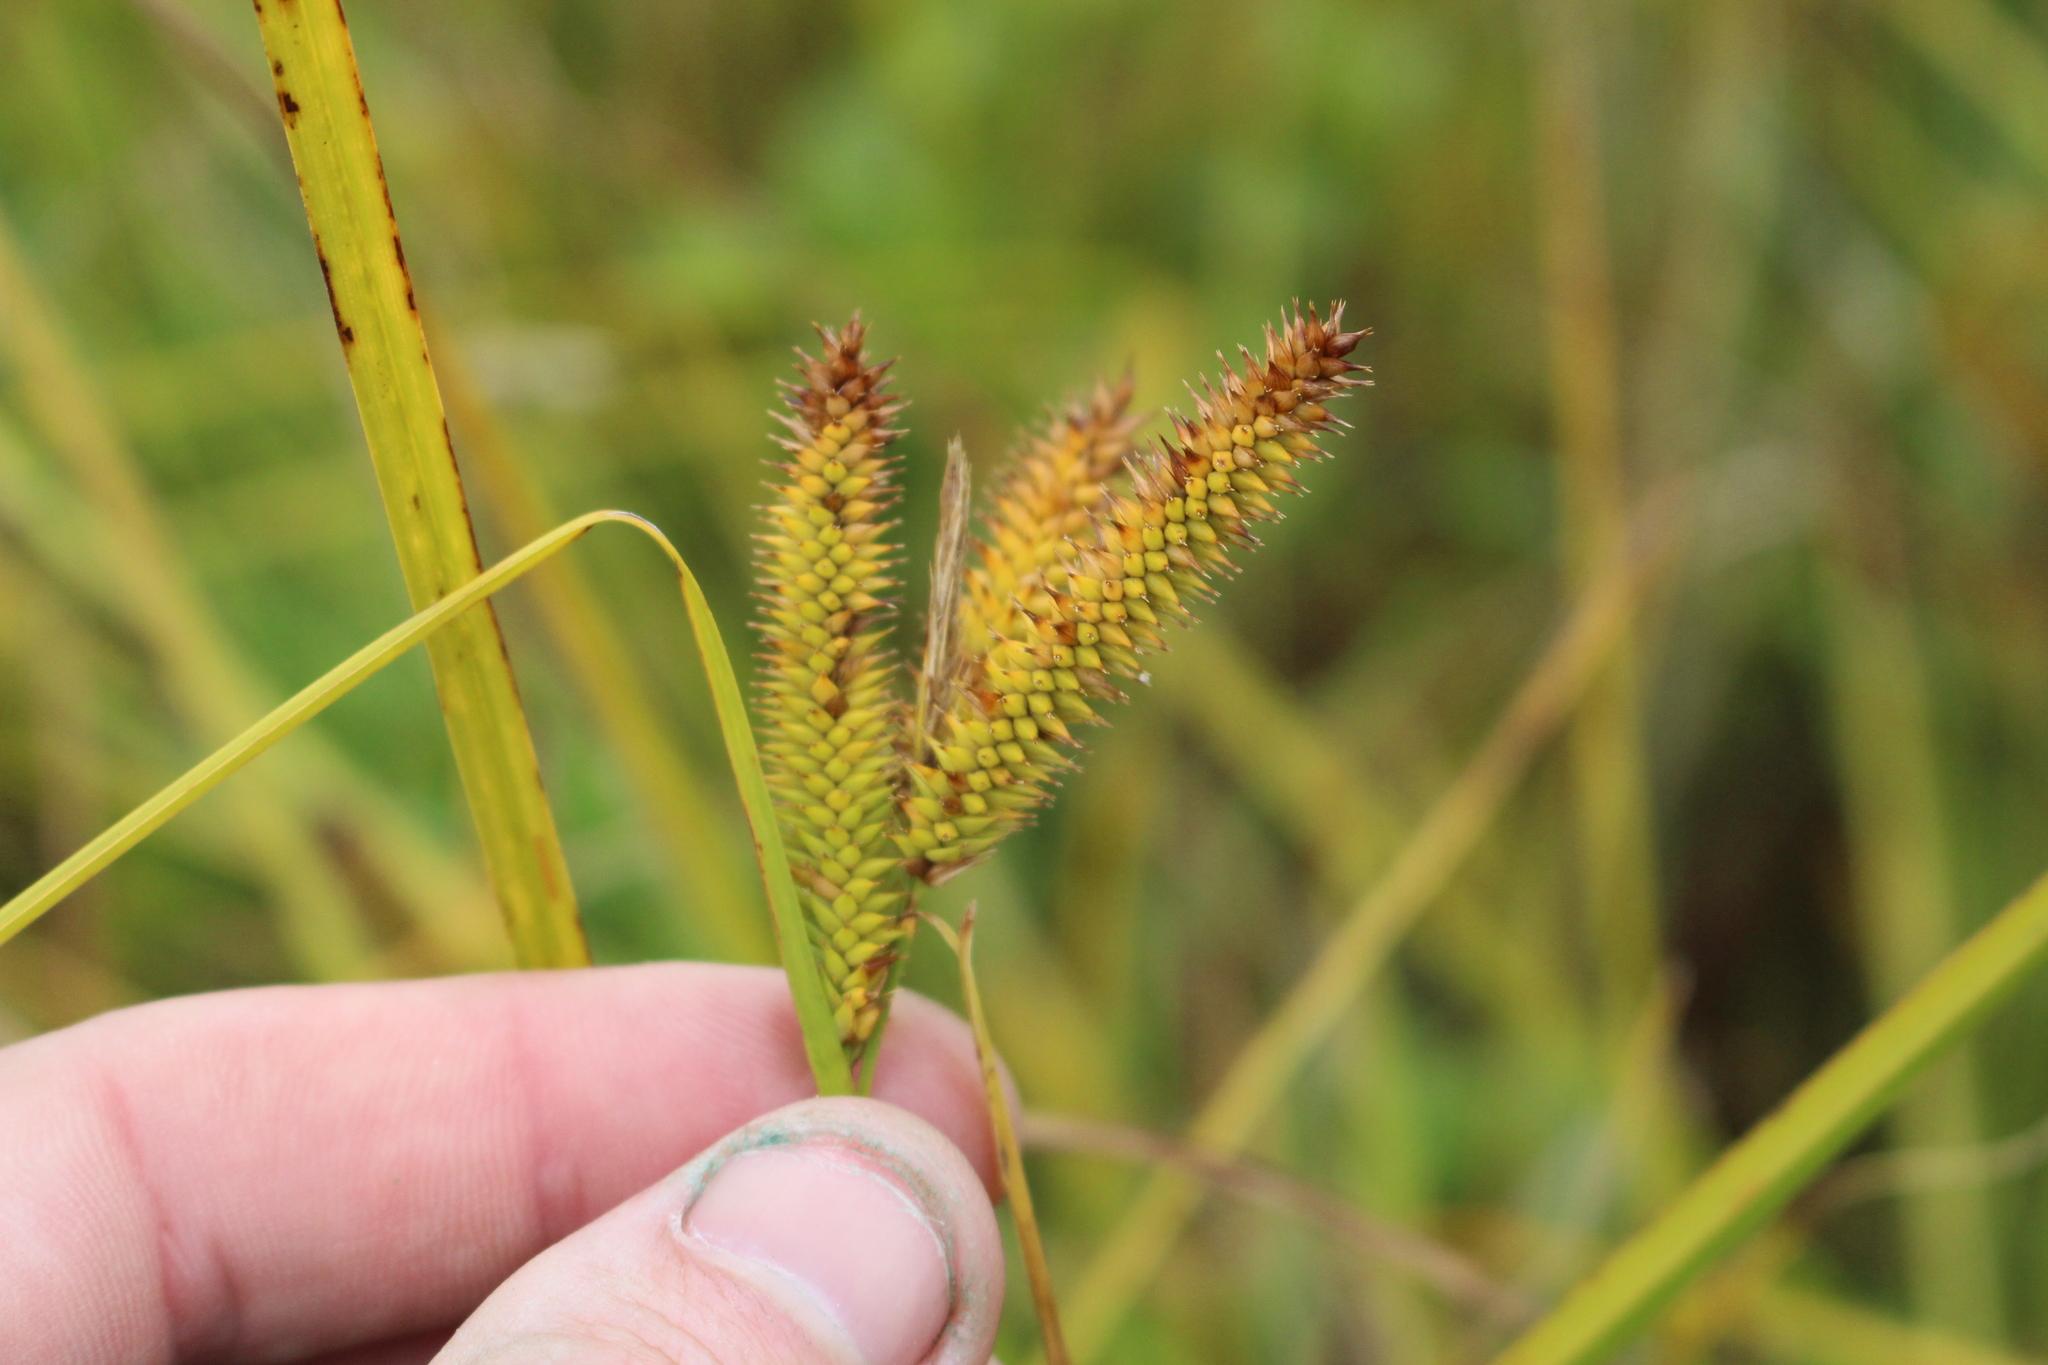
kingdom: Plantae
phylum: Tracheophyta
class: Liliopsida
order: Poales
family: Cyperaceae
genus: Carex
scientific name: Carex maorica
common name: Maori sedge
